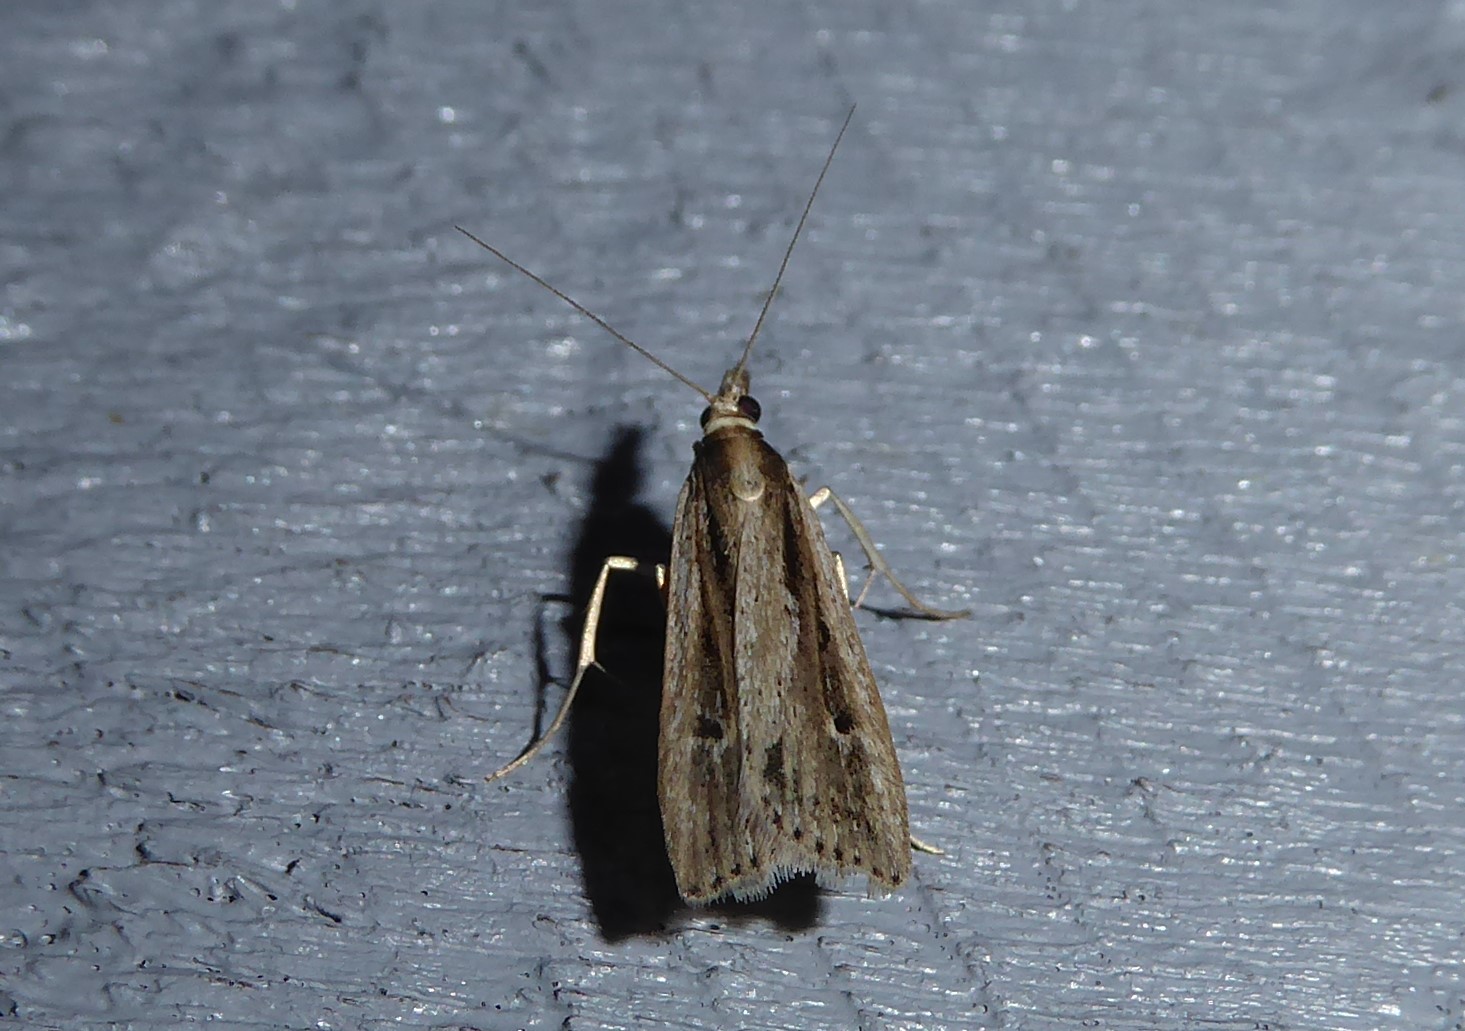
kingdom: Animalia
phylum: Arthropoda
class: Insecta
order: Lepidoptera
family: Crambidae
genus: Eudonia
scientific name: Eudonia sabulosella
